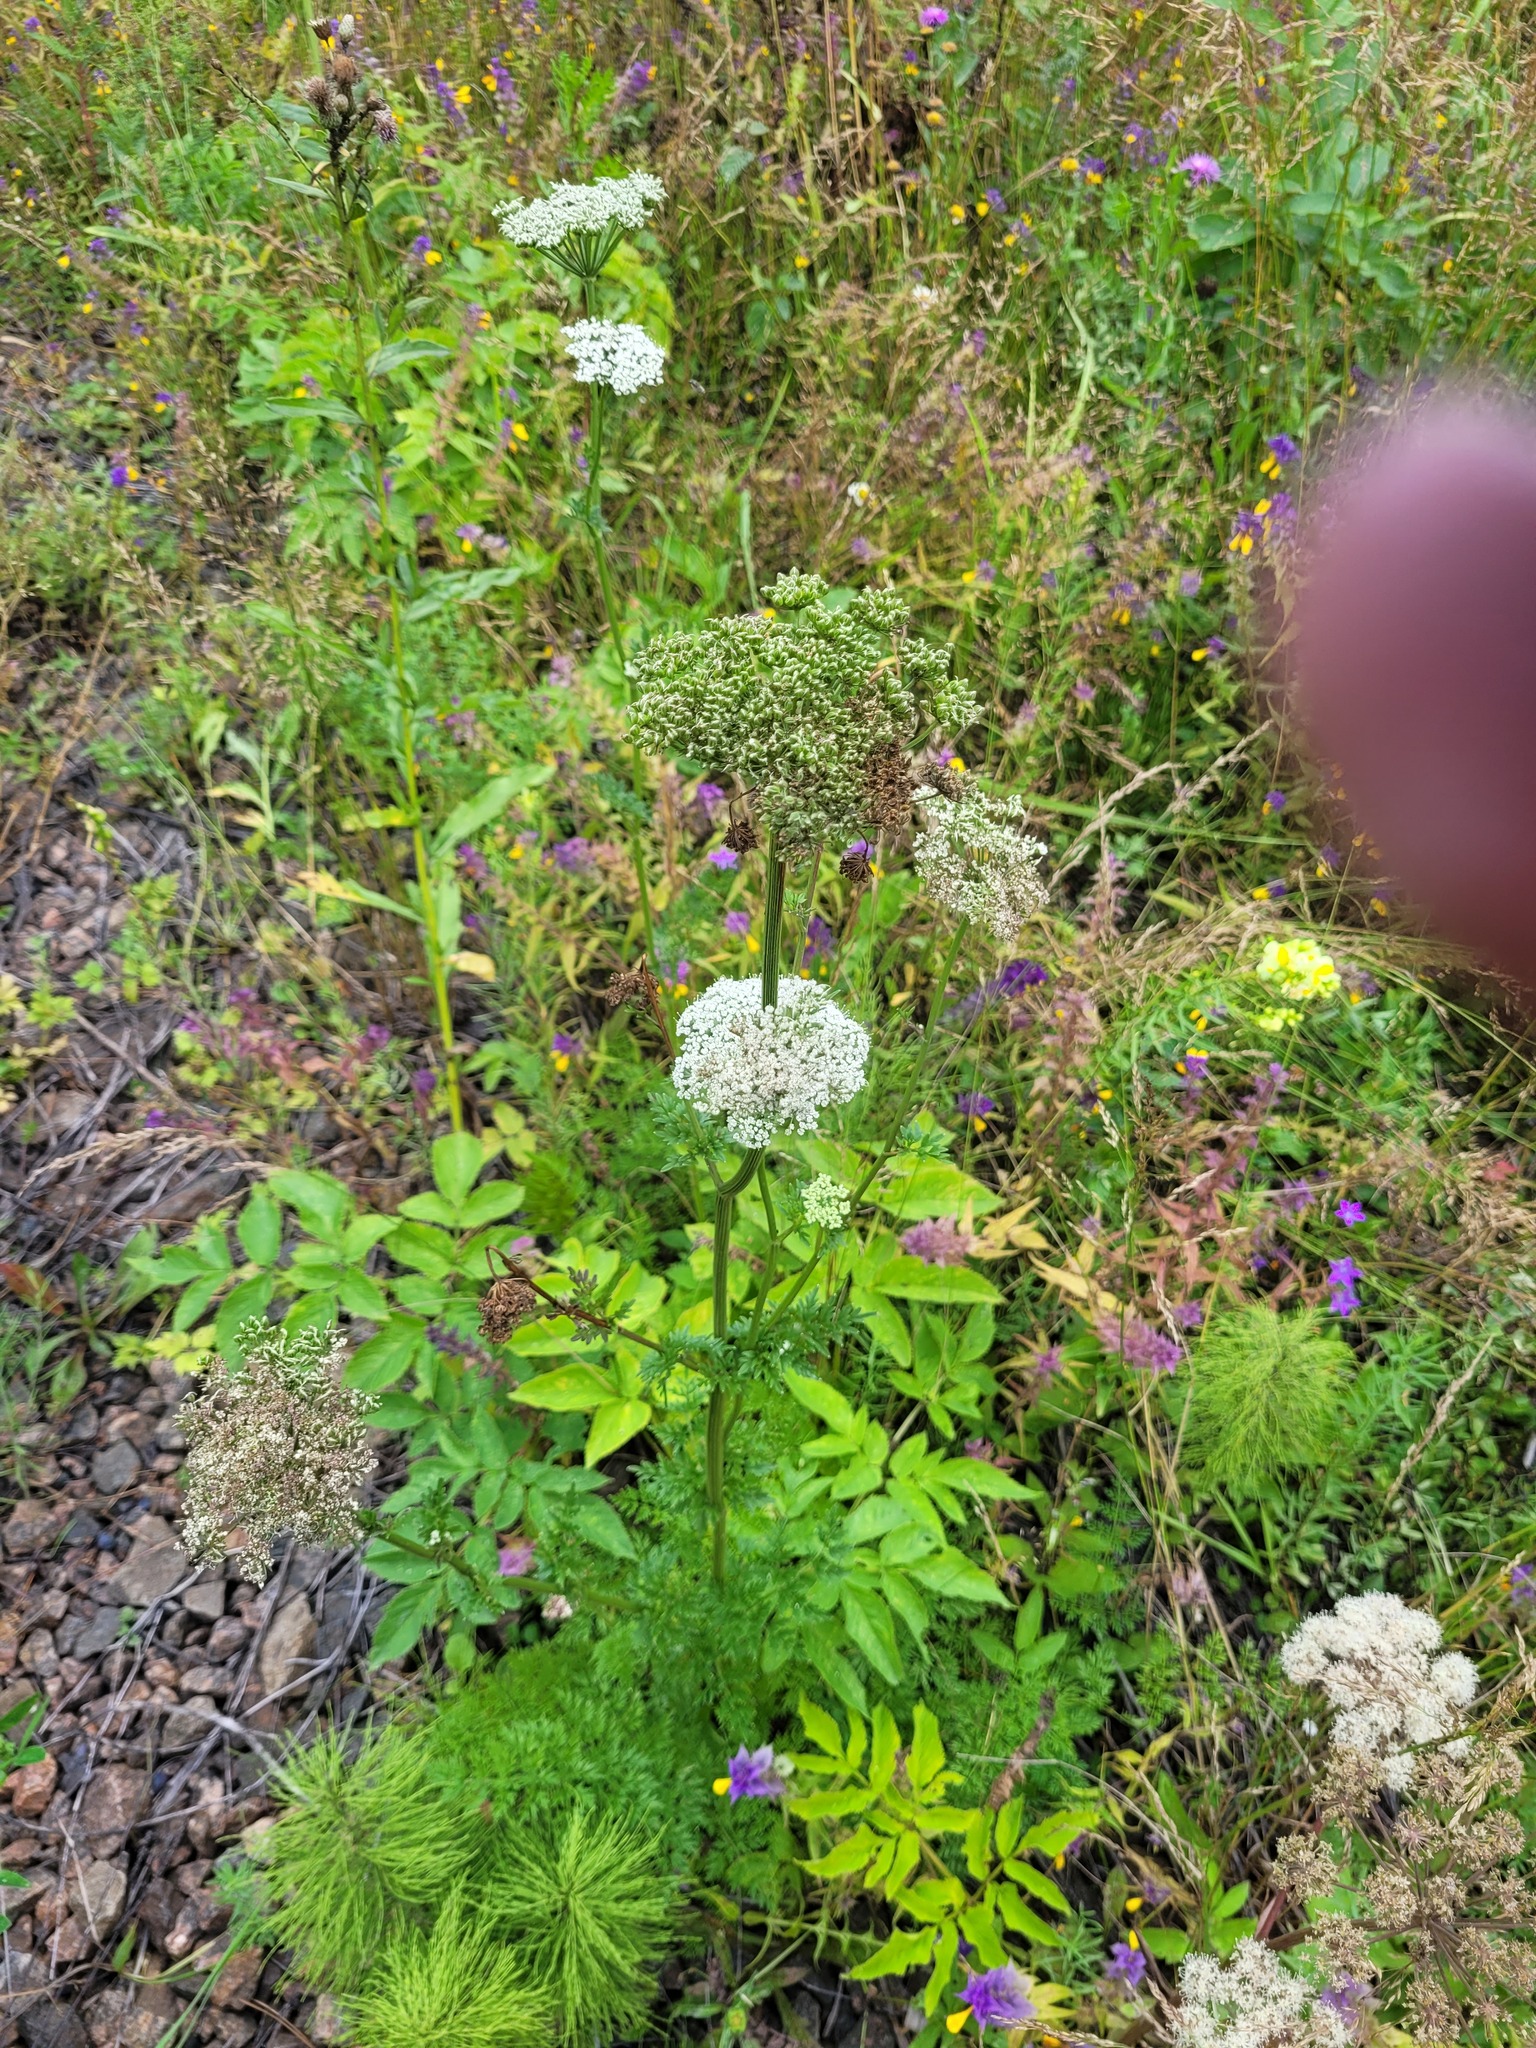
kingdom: Plantae
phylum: Tracheophyta
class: Magnoliopsida
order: Apiales
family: Apiaceae
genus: Selinum
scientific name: Selinum carvifolia
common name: Cambridge milk-parsley
